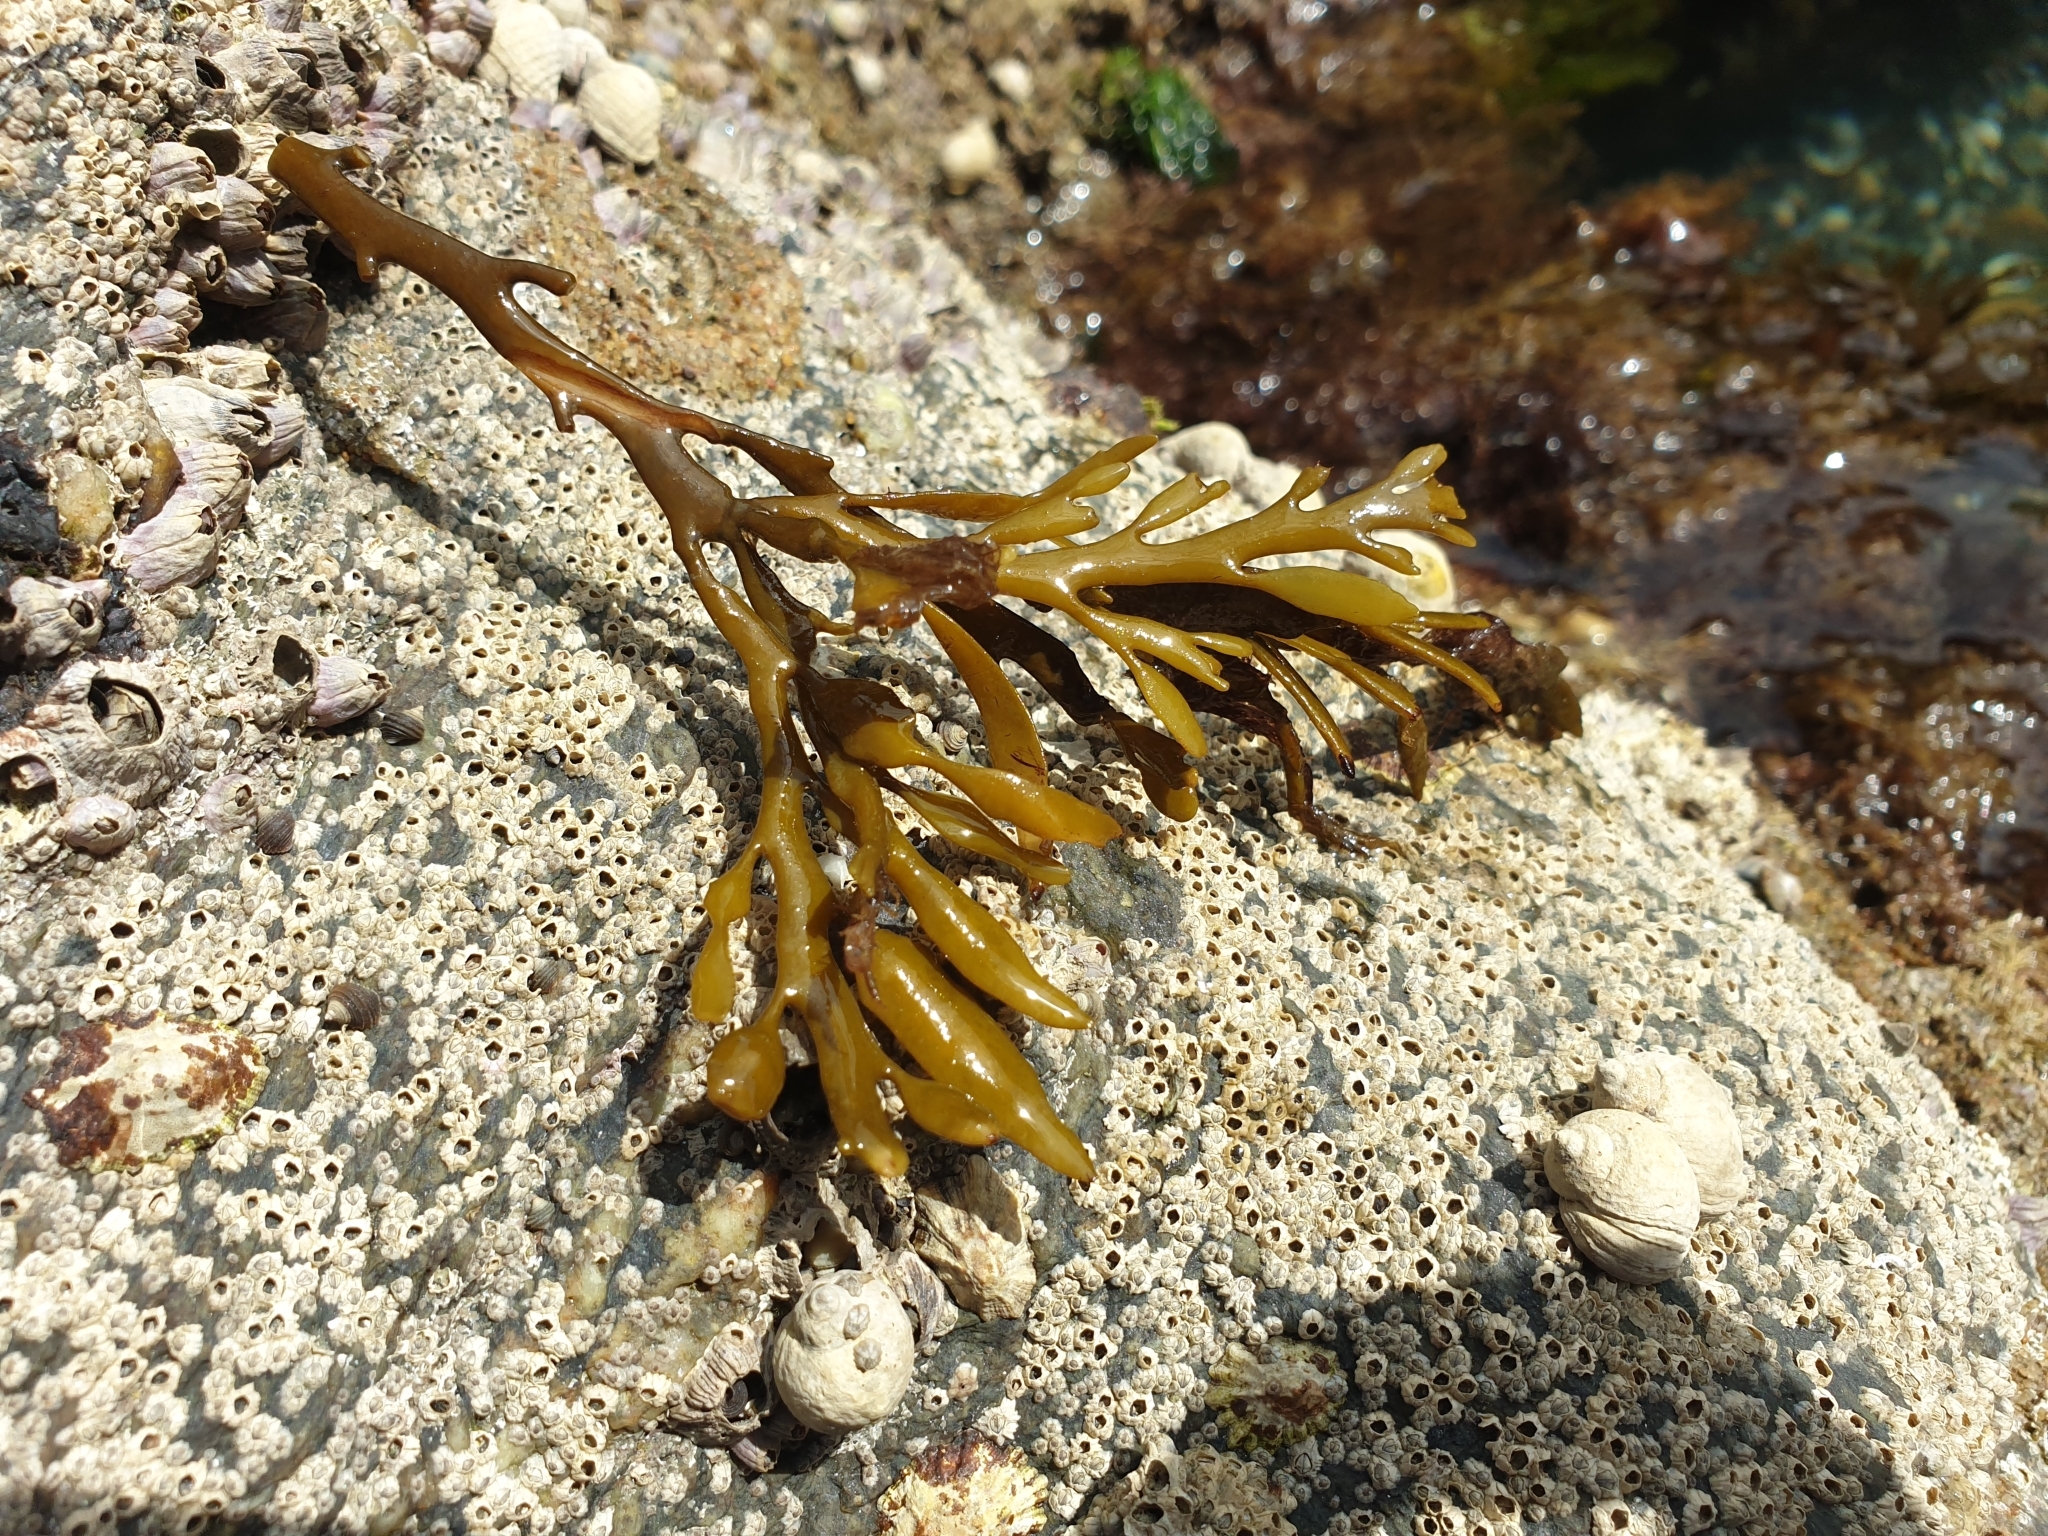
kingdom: Chromista
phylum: Ochrophyta
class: Phaeophyceae
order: Fucales
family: Sargassaceae
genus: Halidrys
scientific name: Halidrys siliquosa
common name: Sea oak
